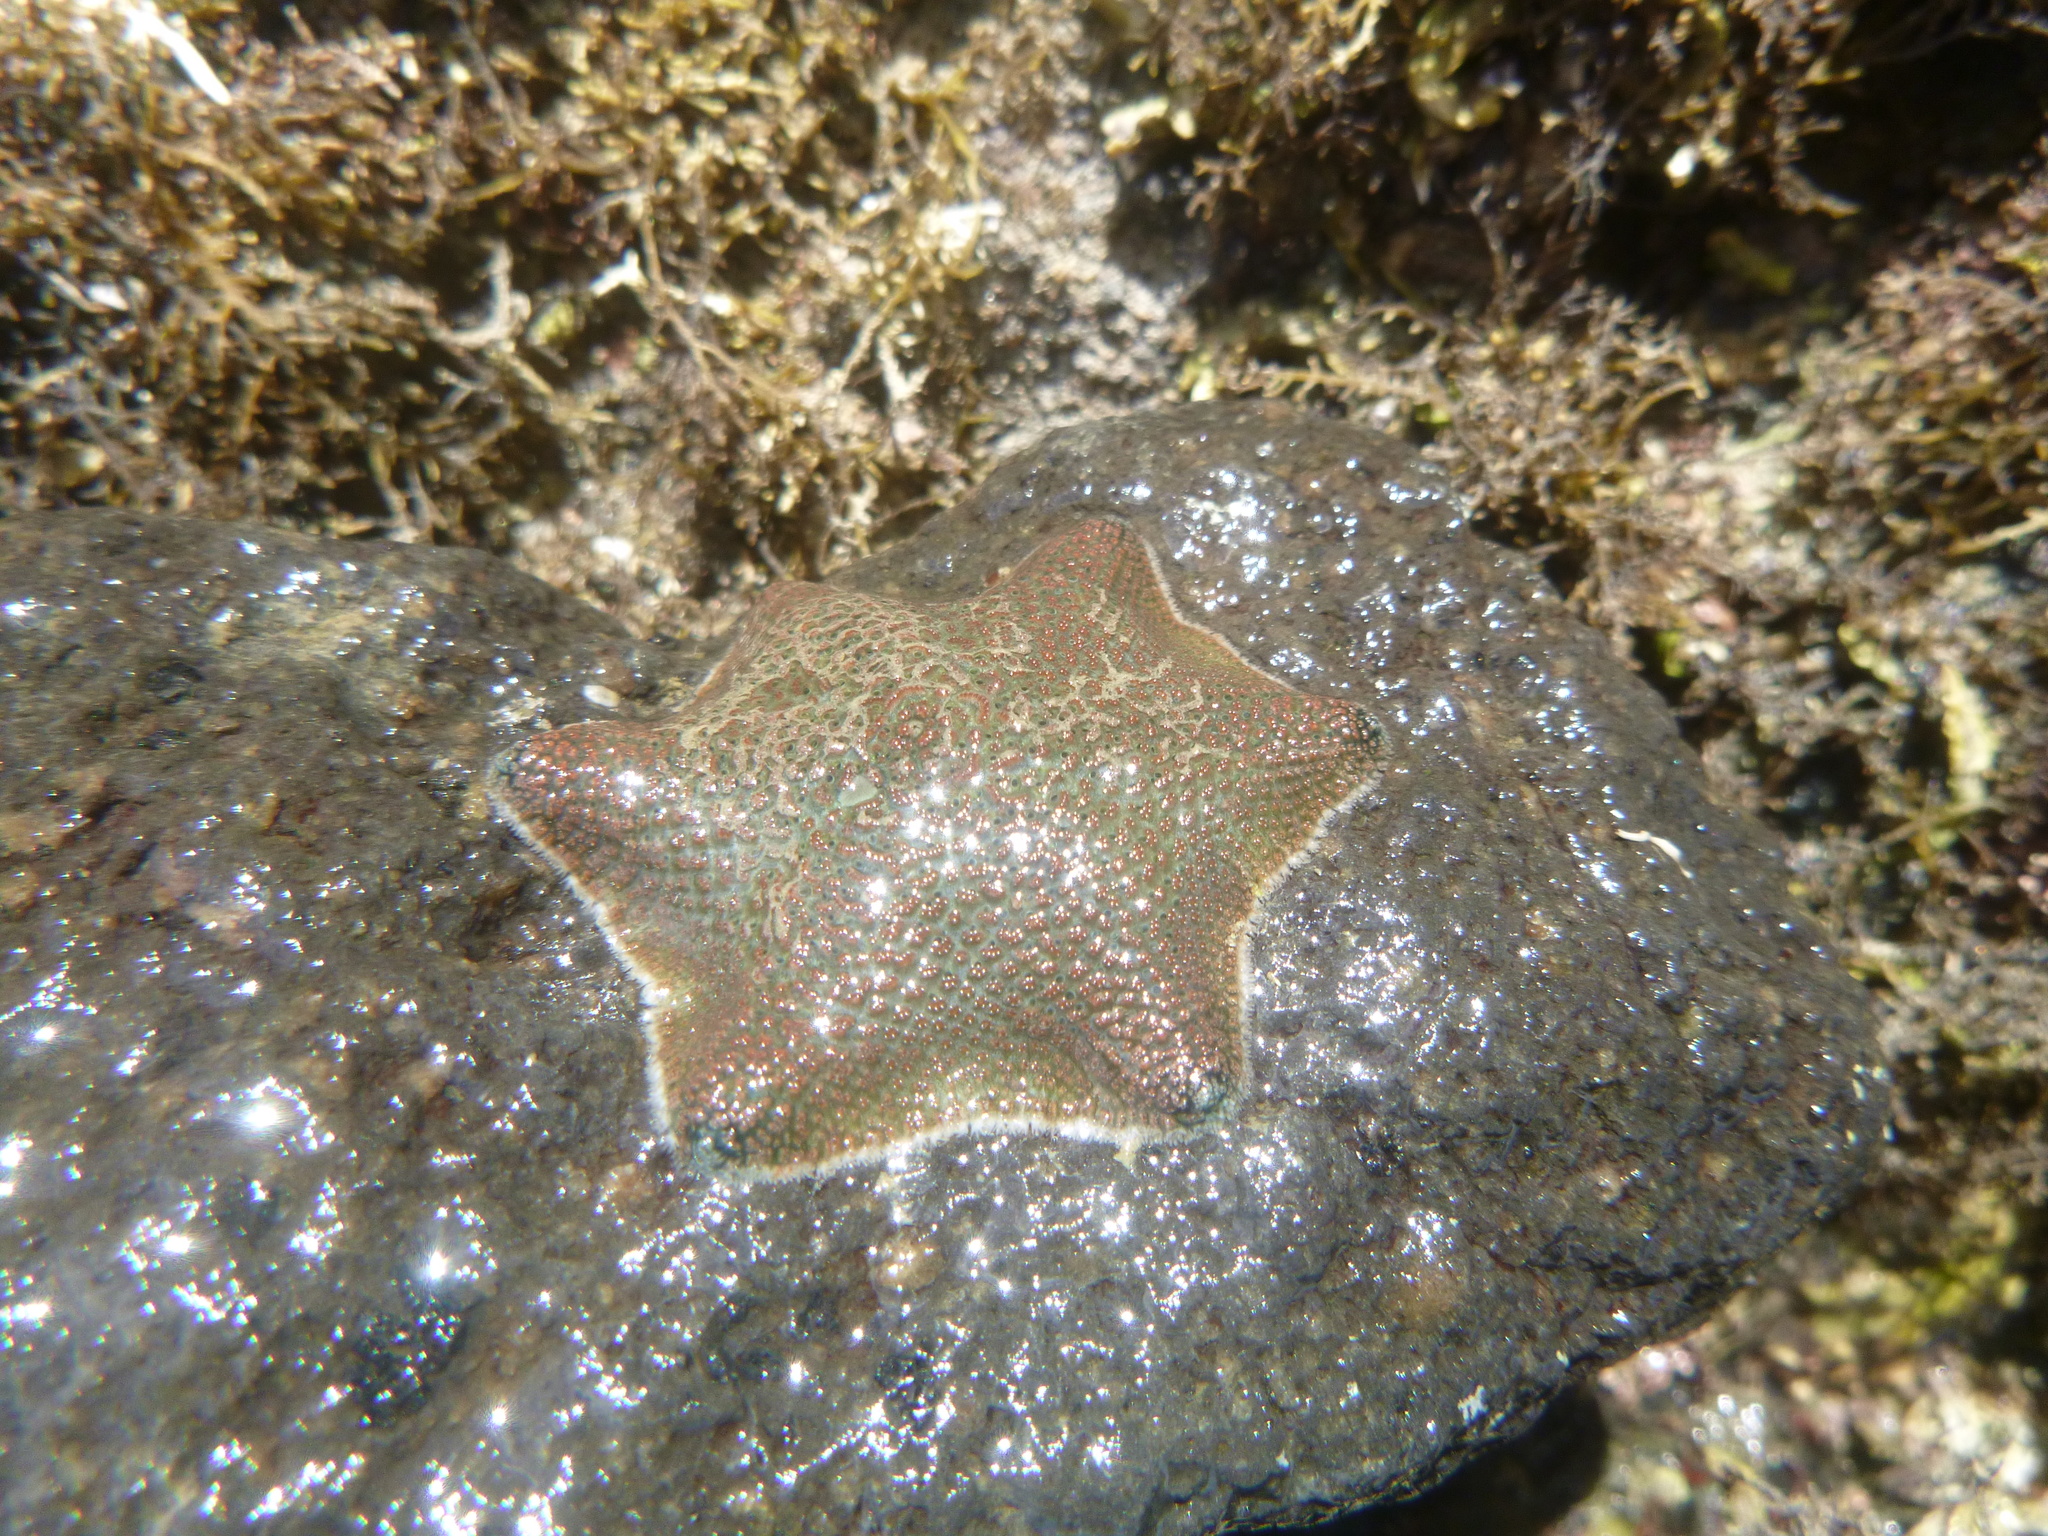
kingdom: Animalia
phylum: Echinodermata
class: Asteroidea
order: Valvatida
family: Asterinidae
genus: Patiriella
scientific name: Patiriella regularis
